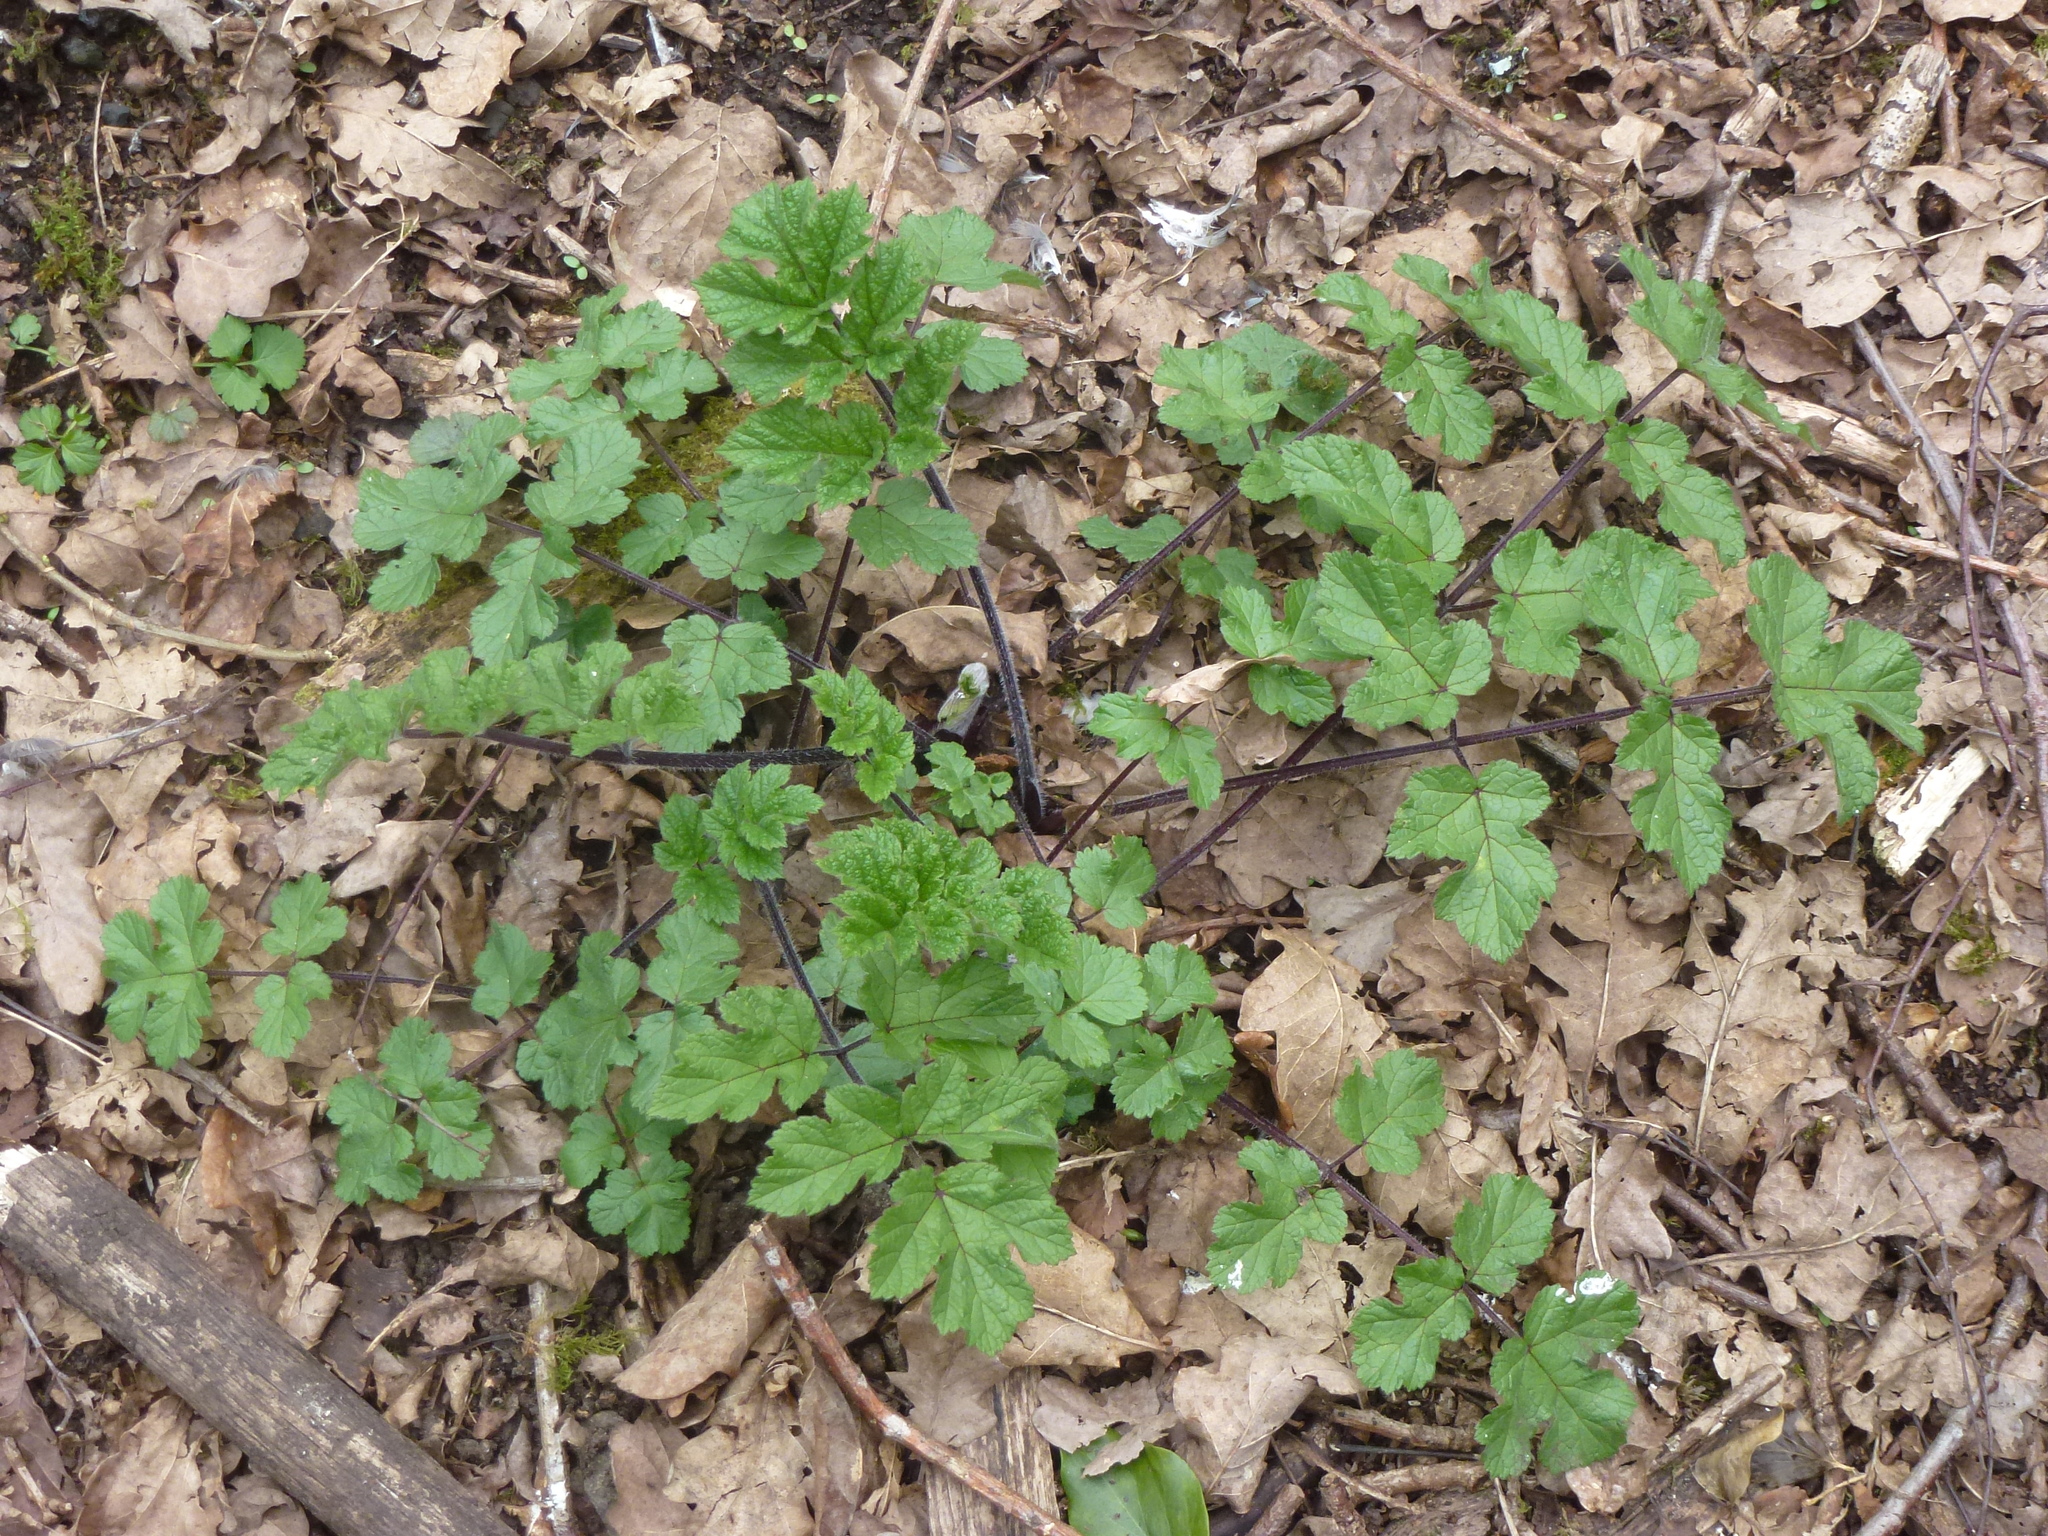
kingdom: Plantae
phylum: Tracheophyta
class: Magnoliopsida
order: Apiales
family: Apiaceae
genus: Heracleum
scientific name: Heracleum sphondylium
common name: Hogweed
